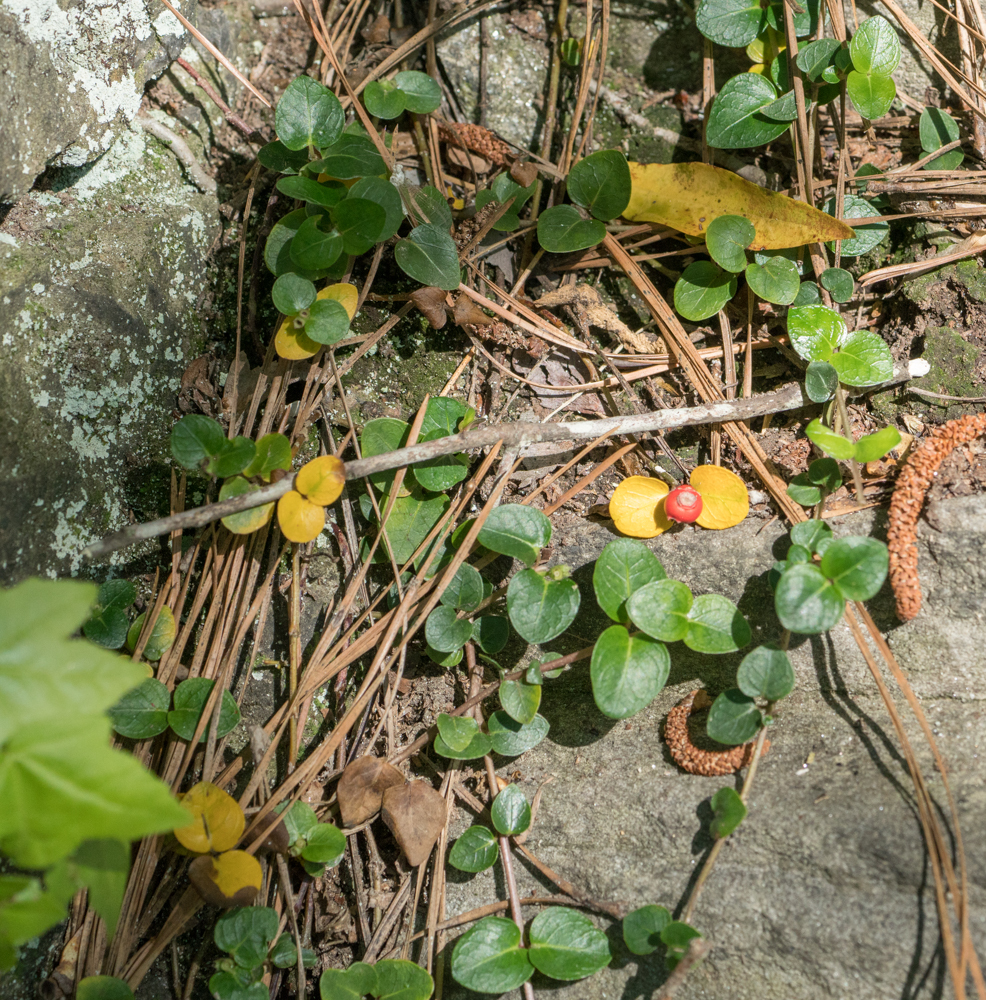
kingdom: Plantae
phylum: Tracheophyta
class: Magnoliopsida
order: Gentianales
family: Rubiaceae
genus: Mitchella
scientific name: Mitchella repens
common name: Partridge-berry
